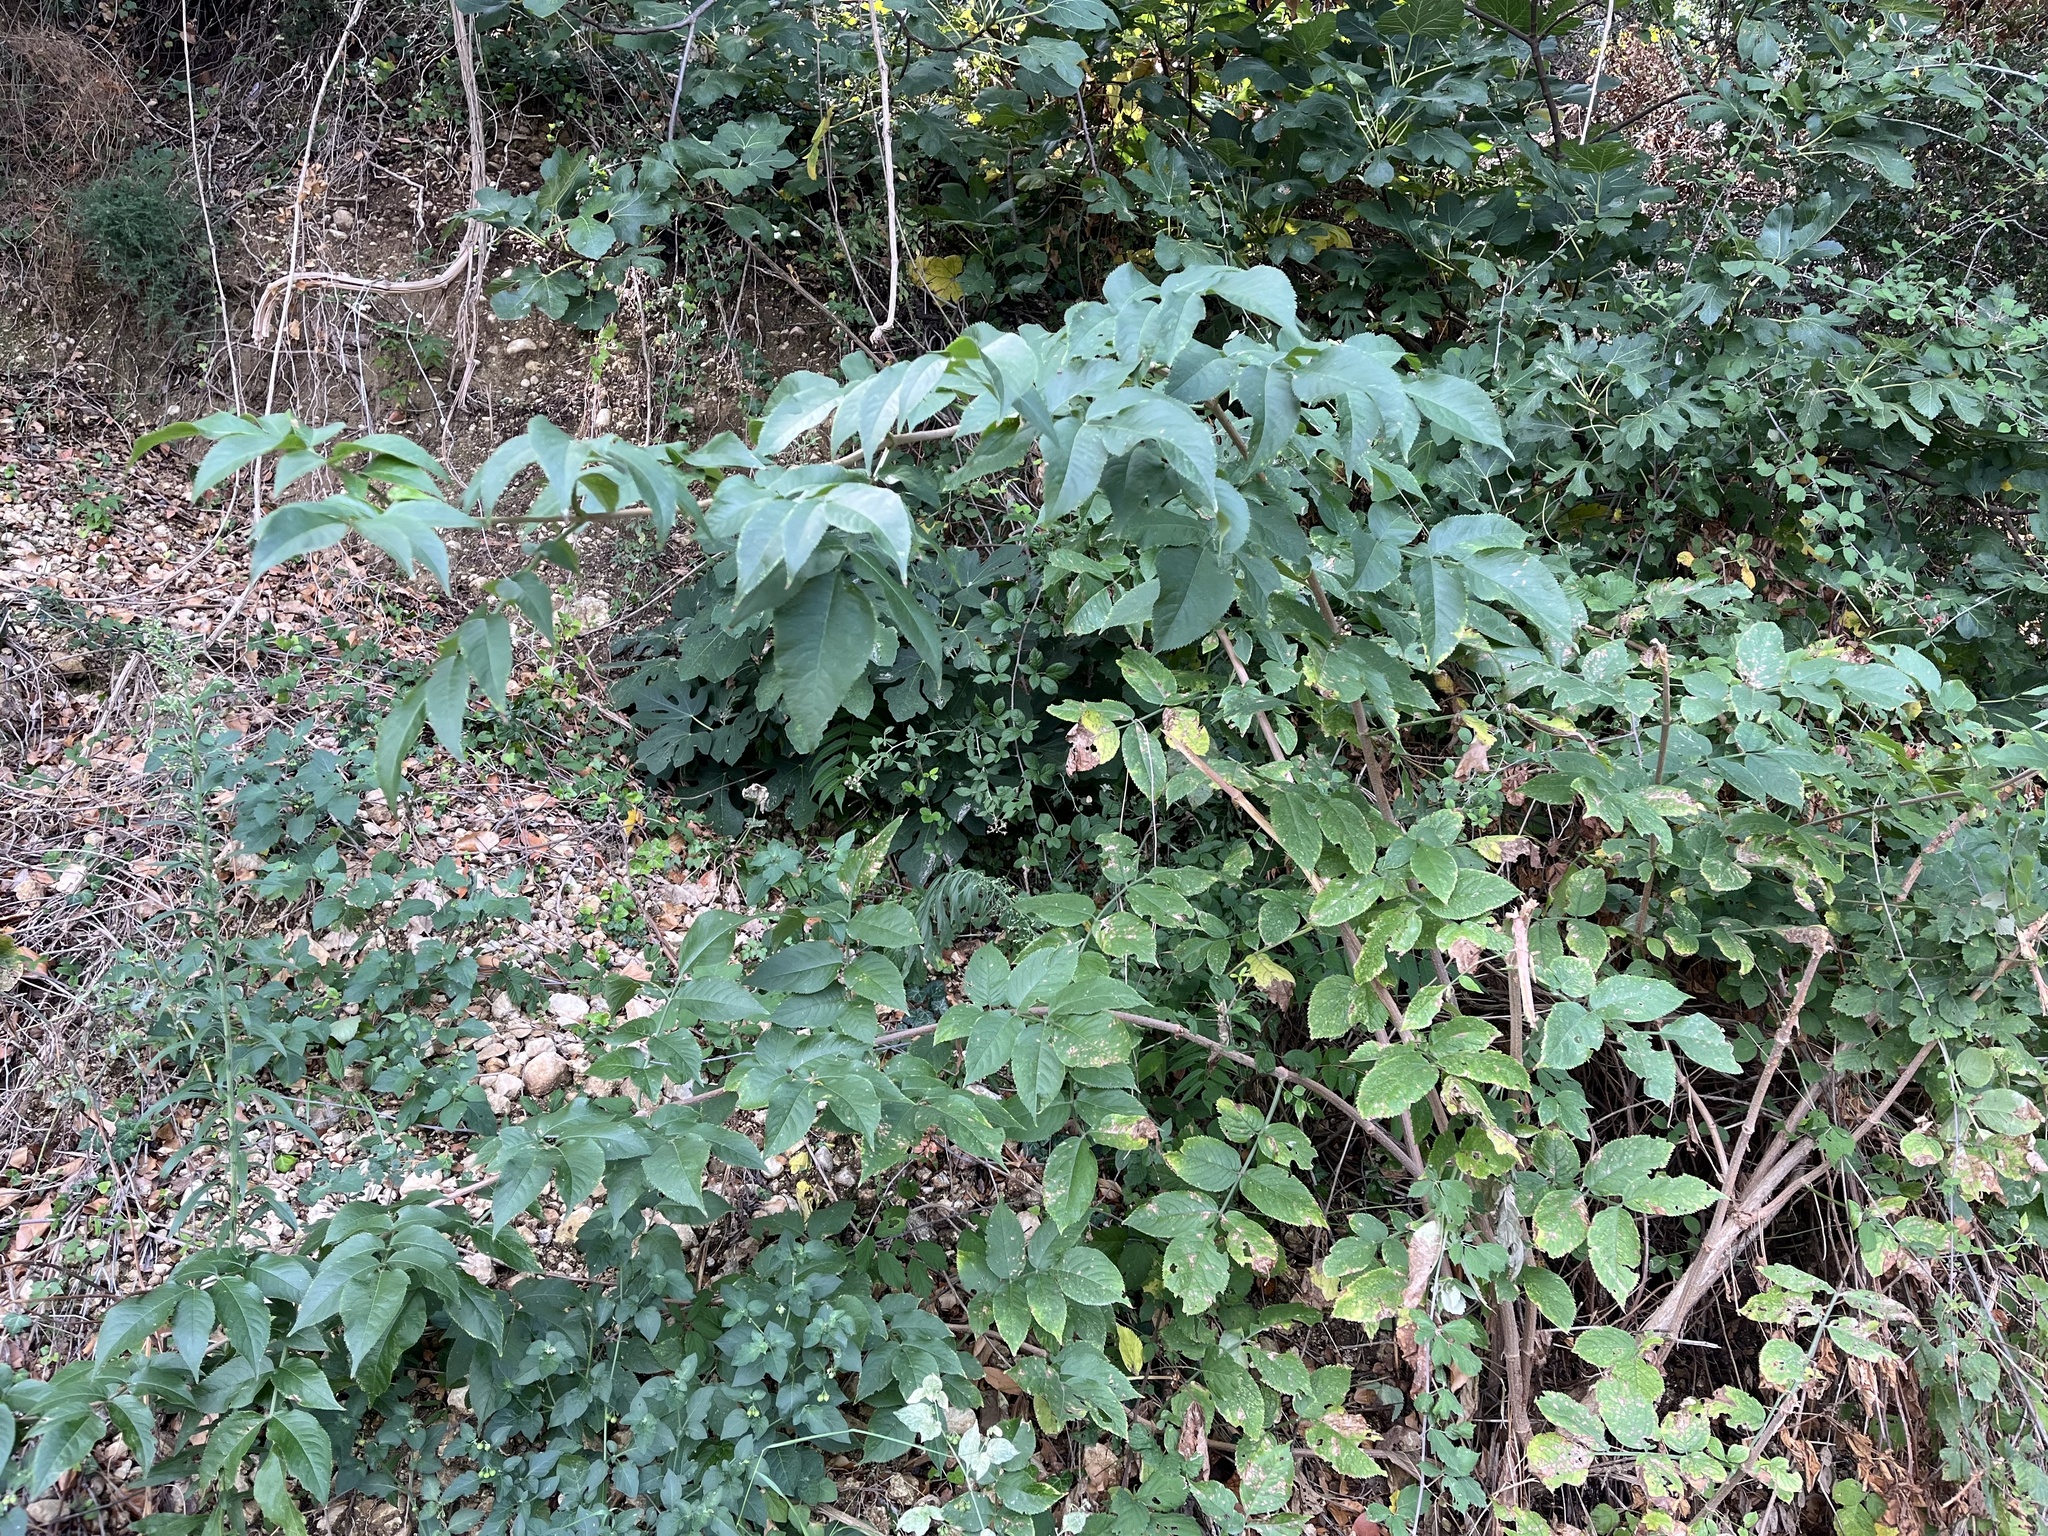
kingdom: Plantae
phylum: Tracheophyta
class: Magnoliopsida
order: Dipsacales
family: Viburnaceae
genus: Sambucus
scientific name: Sambucus nigra
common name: Elder
